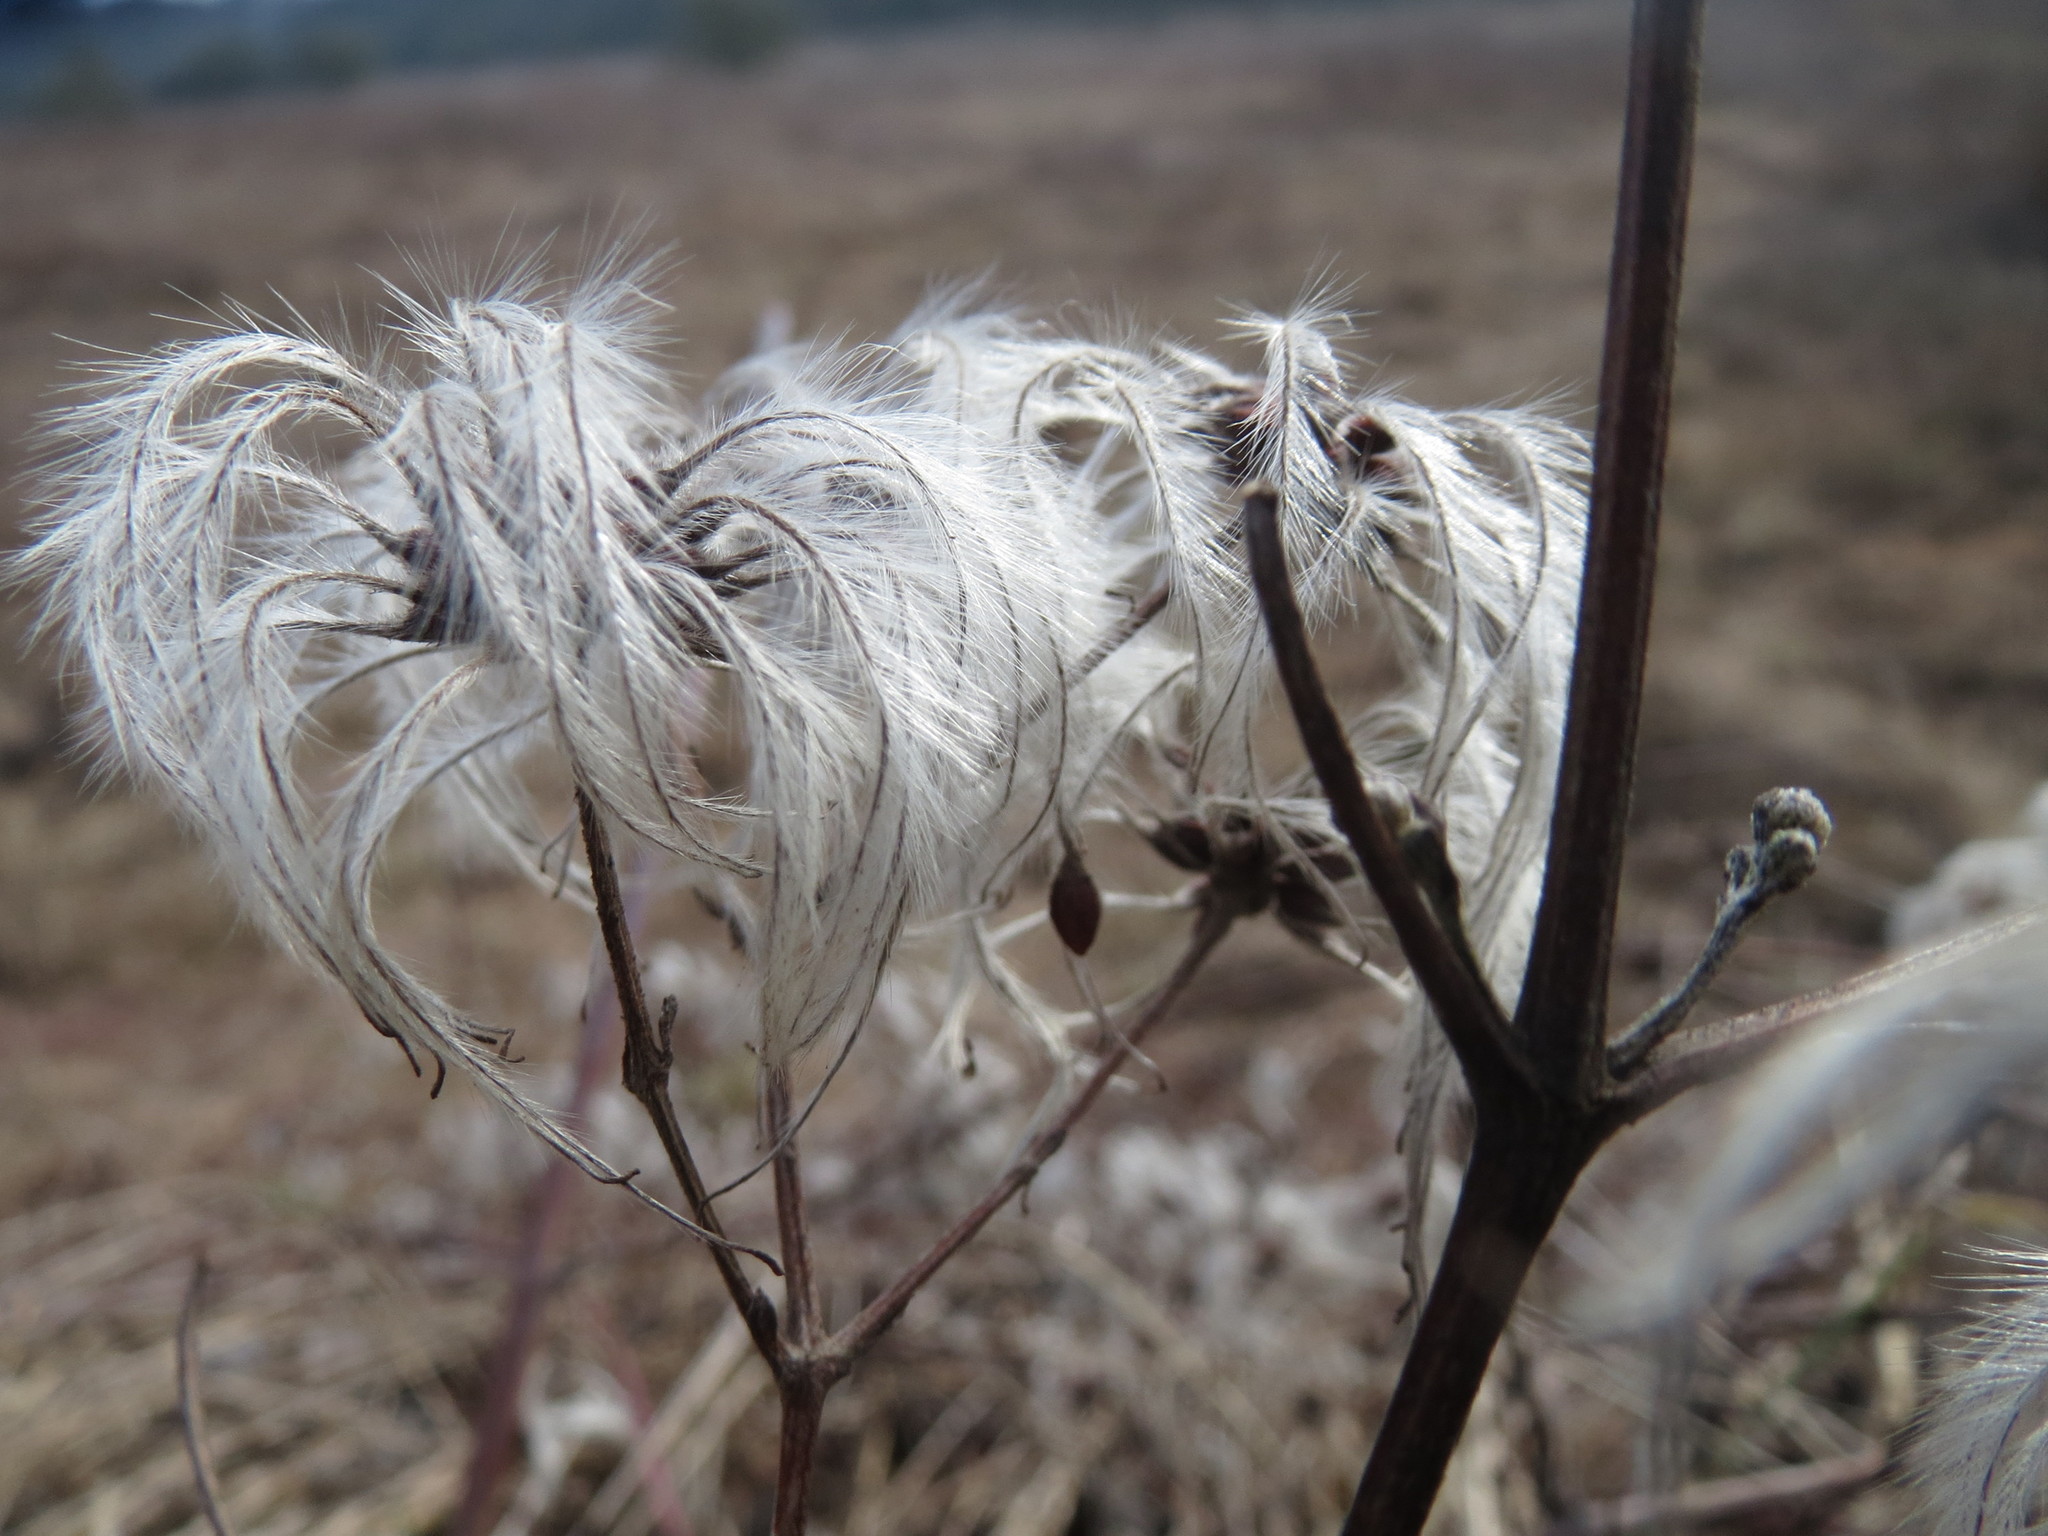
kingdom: Plantae
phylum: Tracheophyta
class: Magnoliopsida
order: Ranunculales
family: Ranunculaceae
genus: Clematis
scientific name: Clematis vitalba
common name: Evergreen clematis
